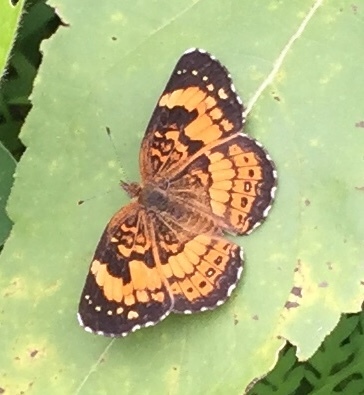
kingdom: Animalia
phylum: Arthropoda
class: Insecta
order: Lepidoptera
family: Nymphalidae
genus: Chlosyne
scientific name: Chlosyne nycteis
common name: Silvery checkerspot
